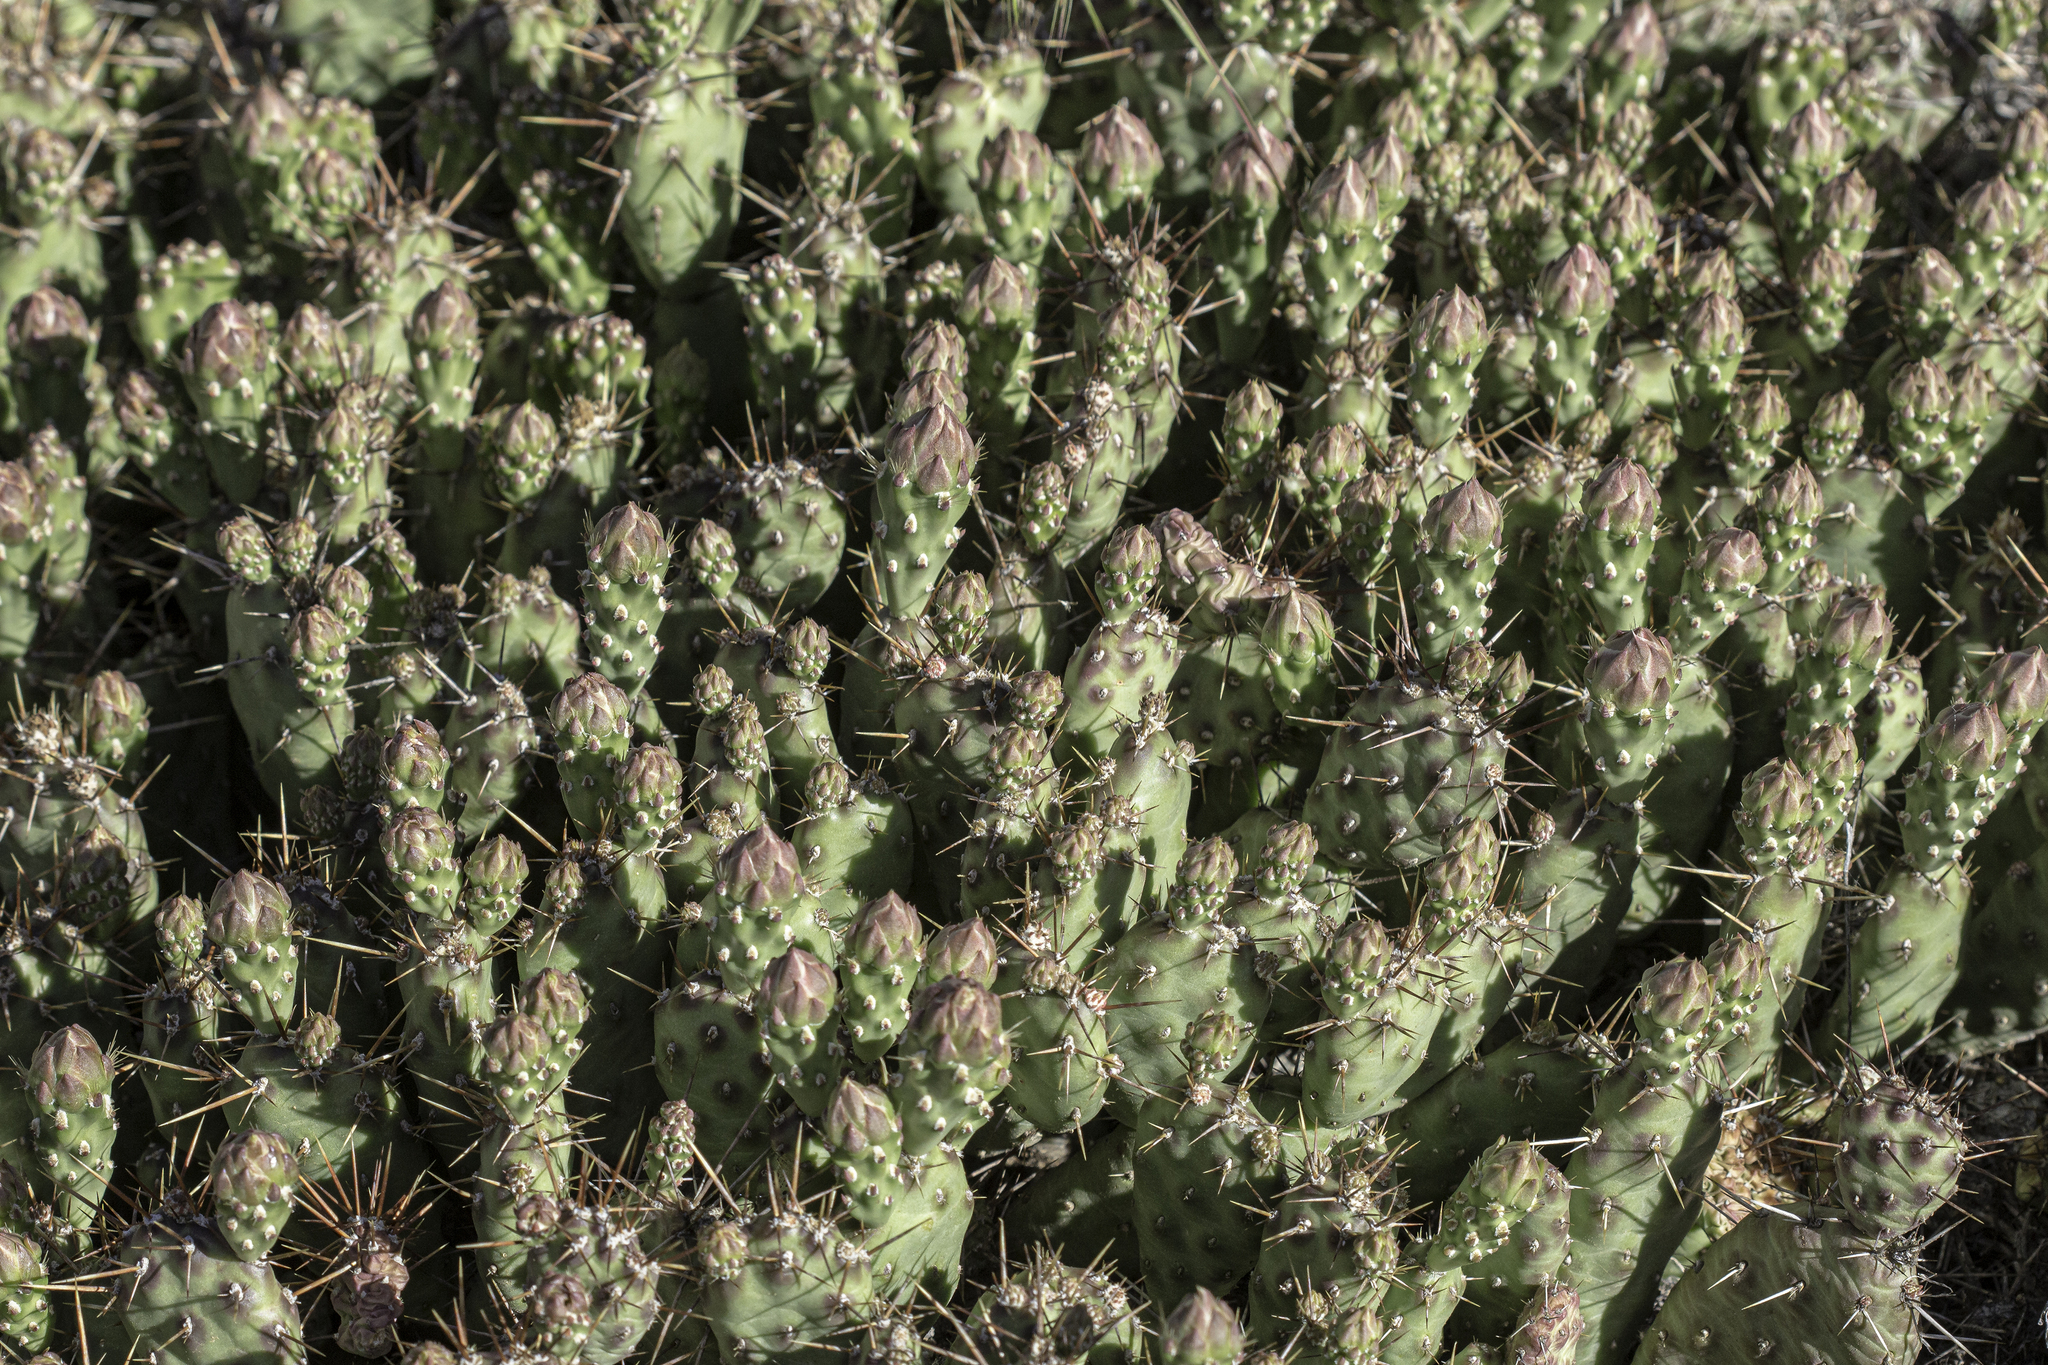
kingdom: Plantae
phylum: Tracheophyta
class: Magnoliopsida
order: Caryophyllales
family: Cactaceae
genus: Opuntia
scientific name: Opuntia fragilis
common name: Brittle cactus
